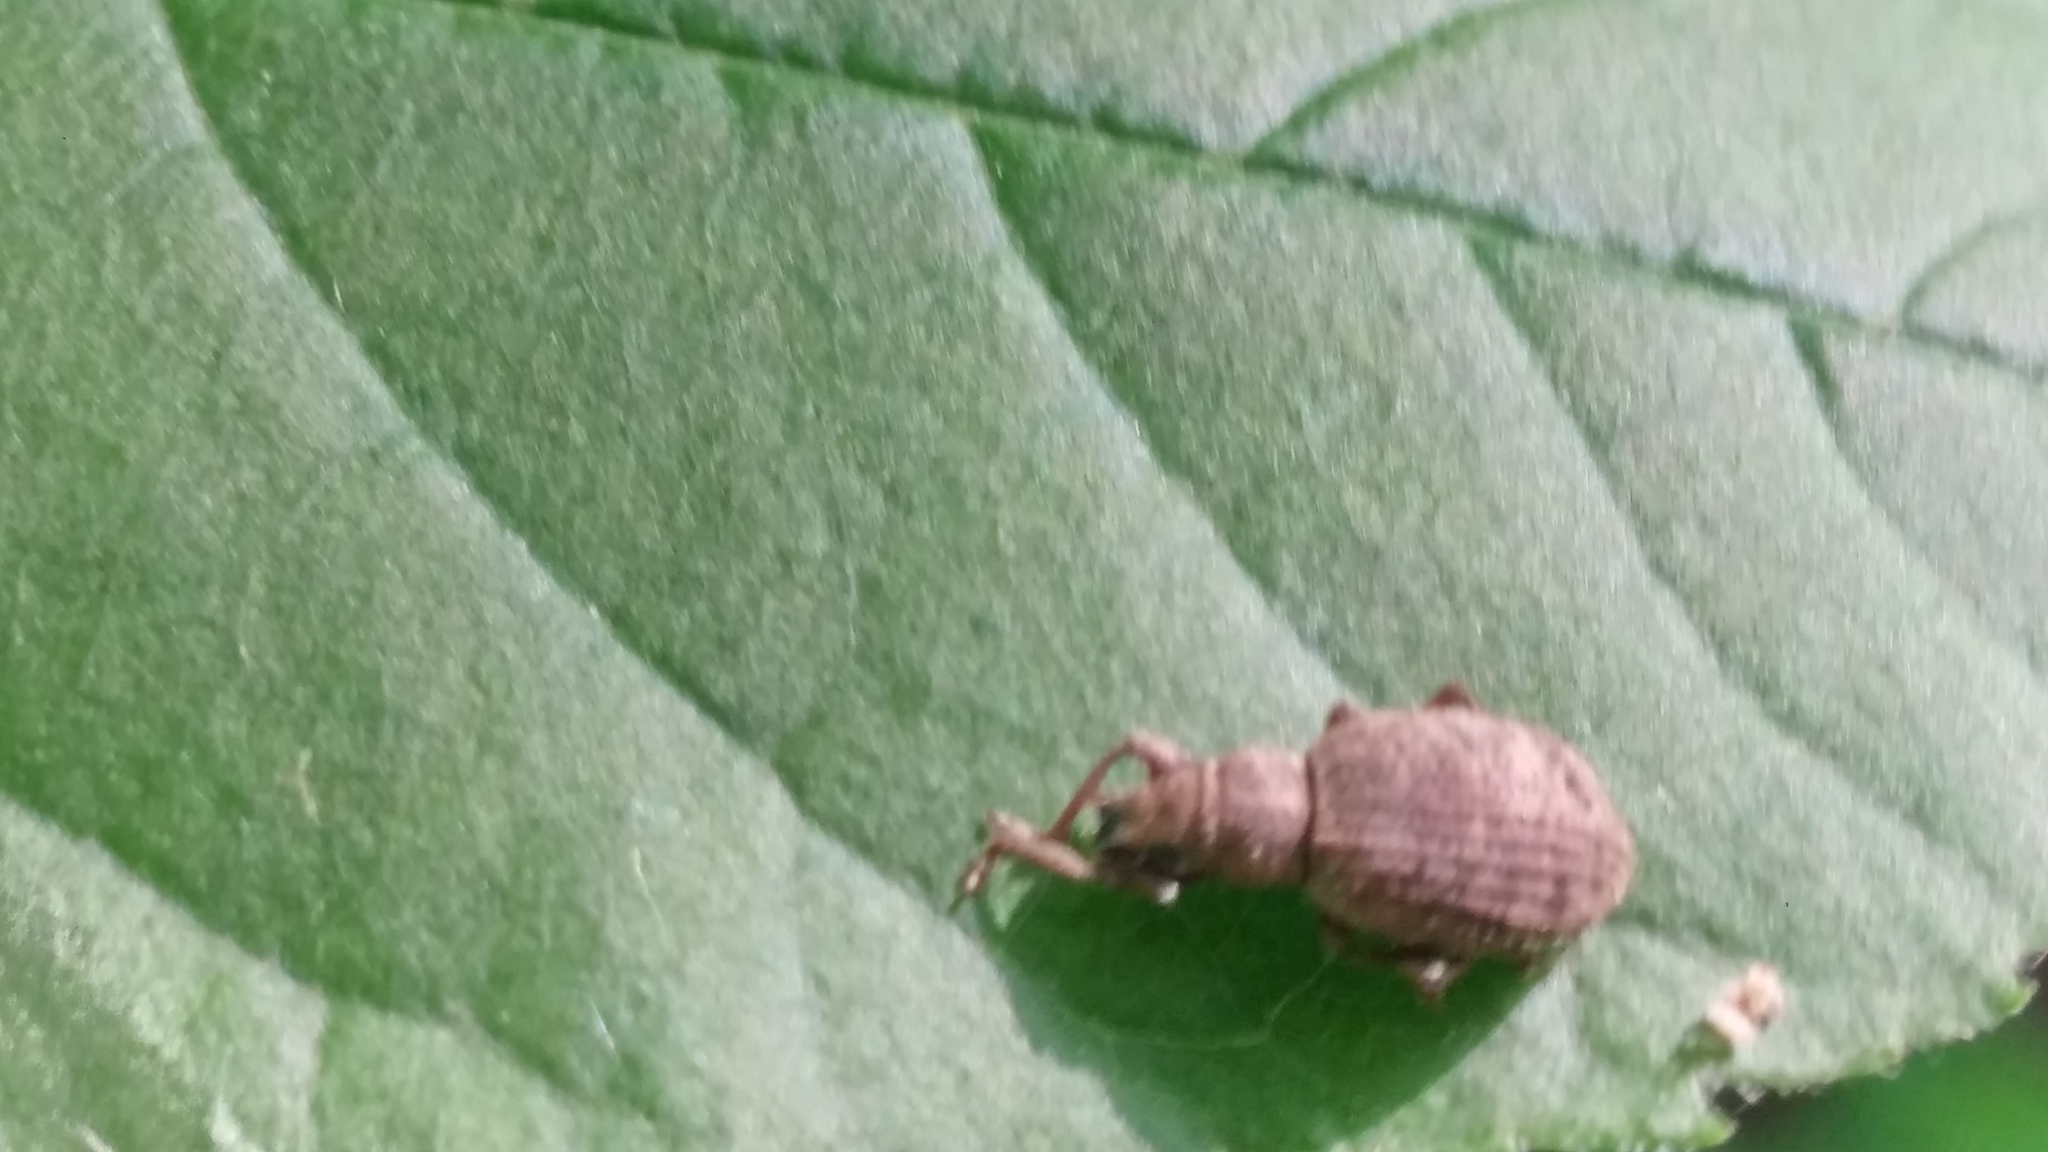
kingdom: Animalia
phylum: Arthropoda
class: Insecta
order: Coleoptera
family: Curculionidae
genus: Sciaphilus
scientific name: Sciaphilus asperatus
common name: Weevil
